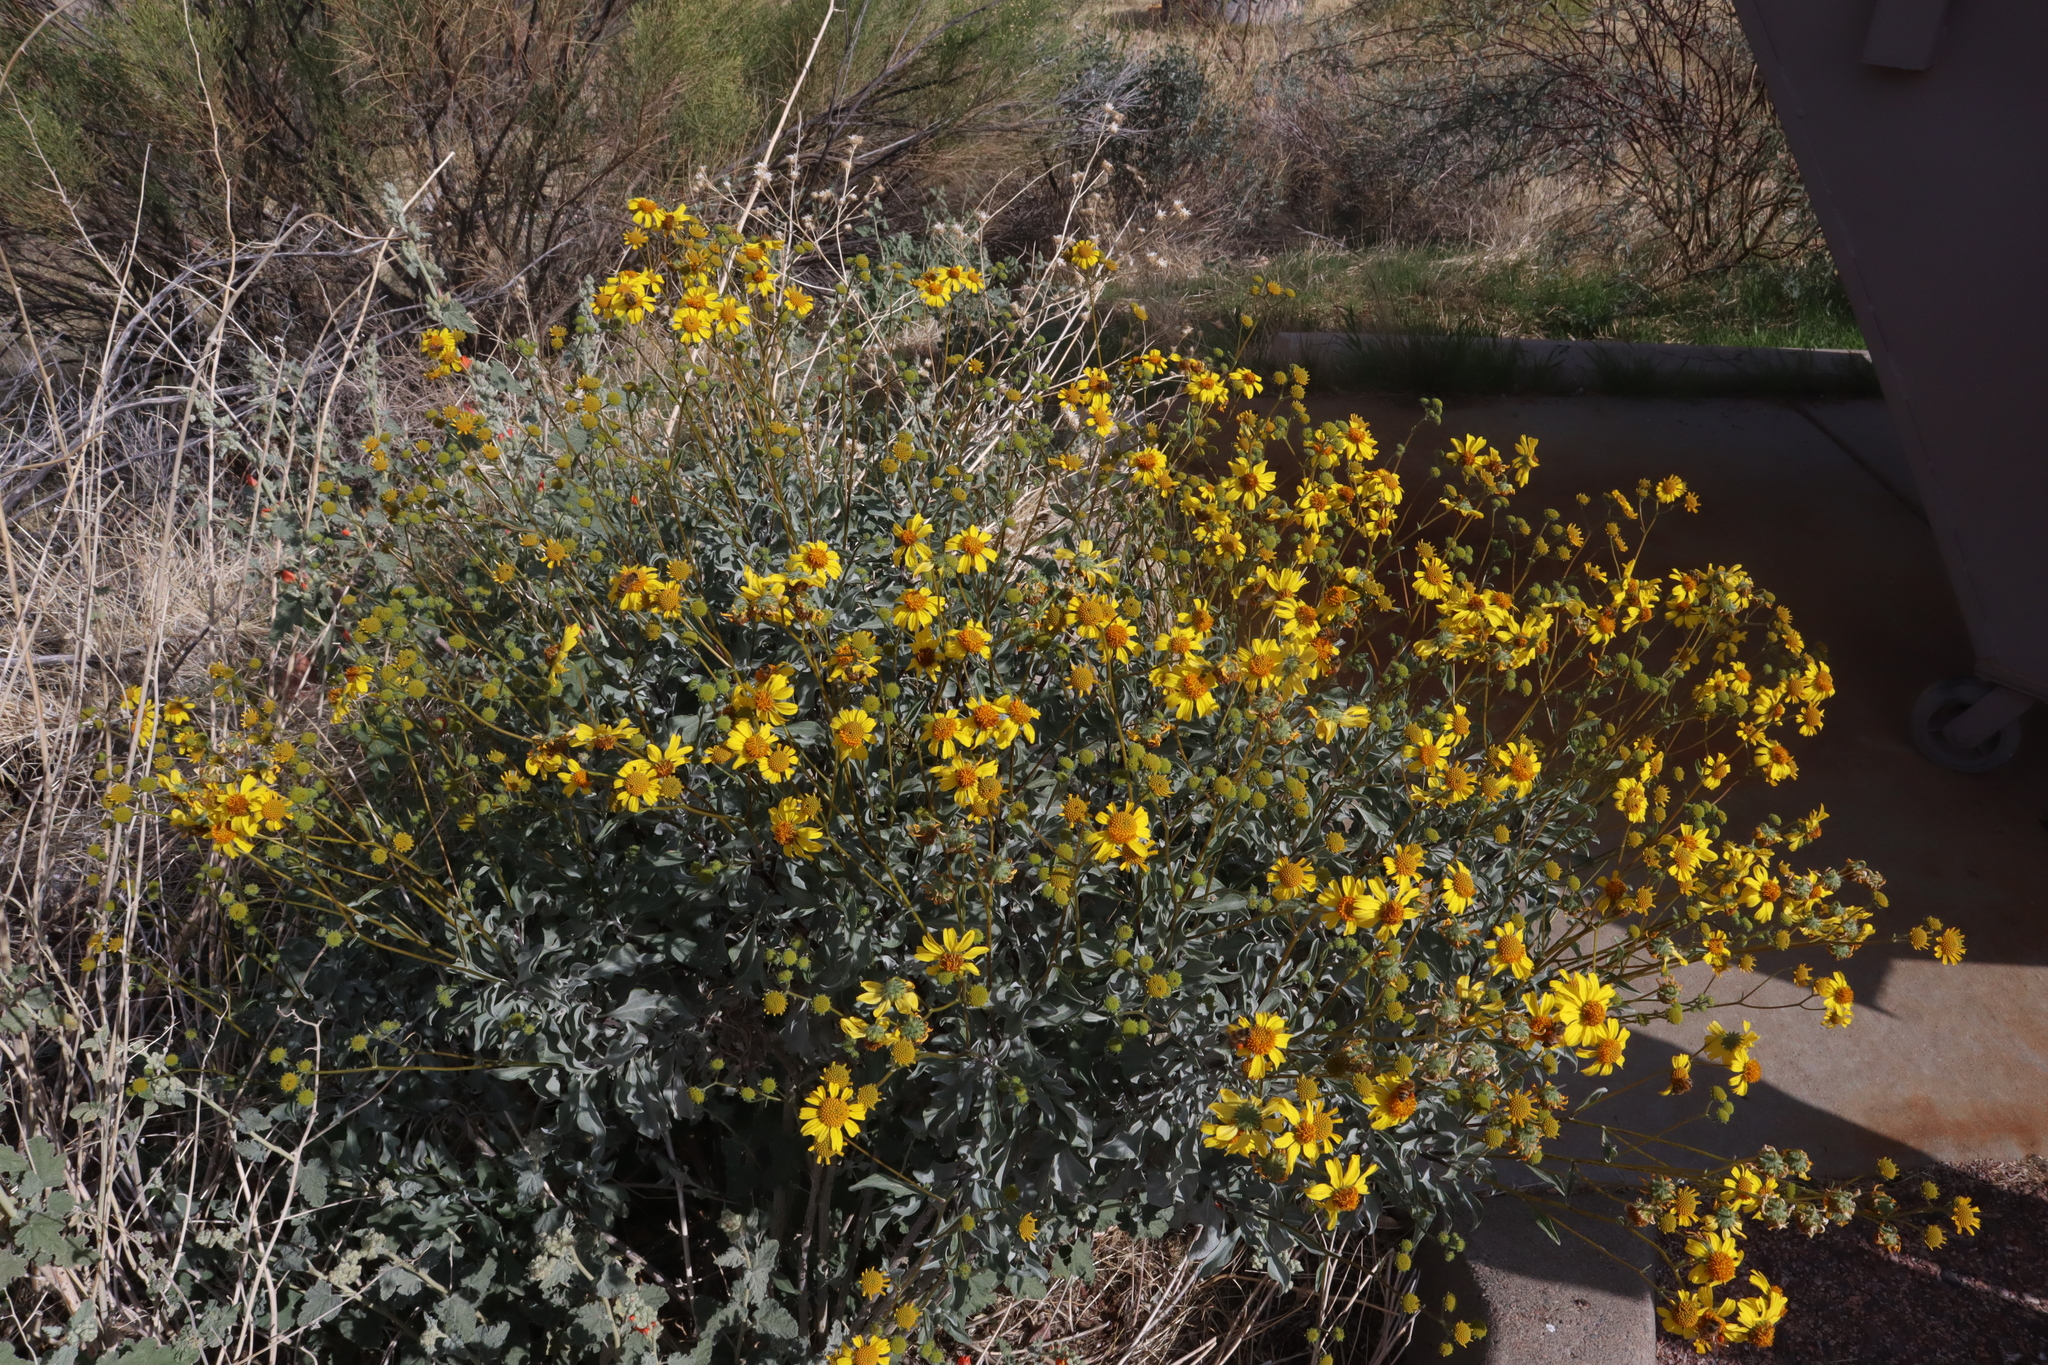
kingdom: Plantae
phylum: Tracheophyta
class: Magnoliopsida
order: Asterales
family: Asteraceae
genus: Encelia
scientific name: Encelia farinosa
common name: Brittlebush
